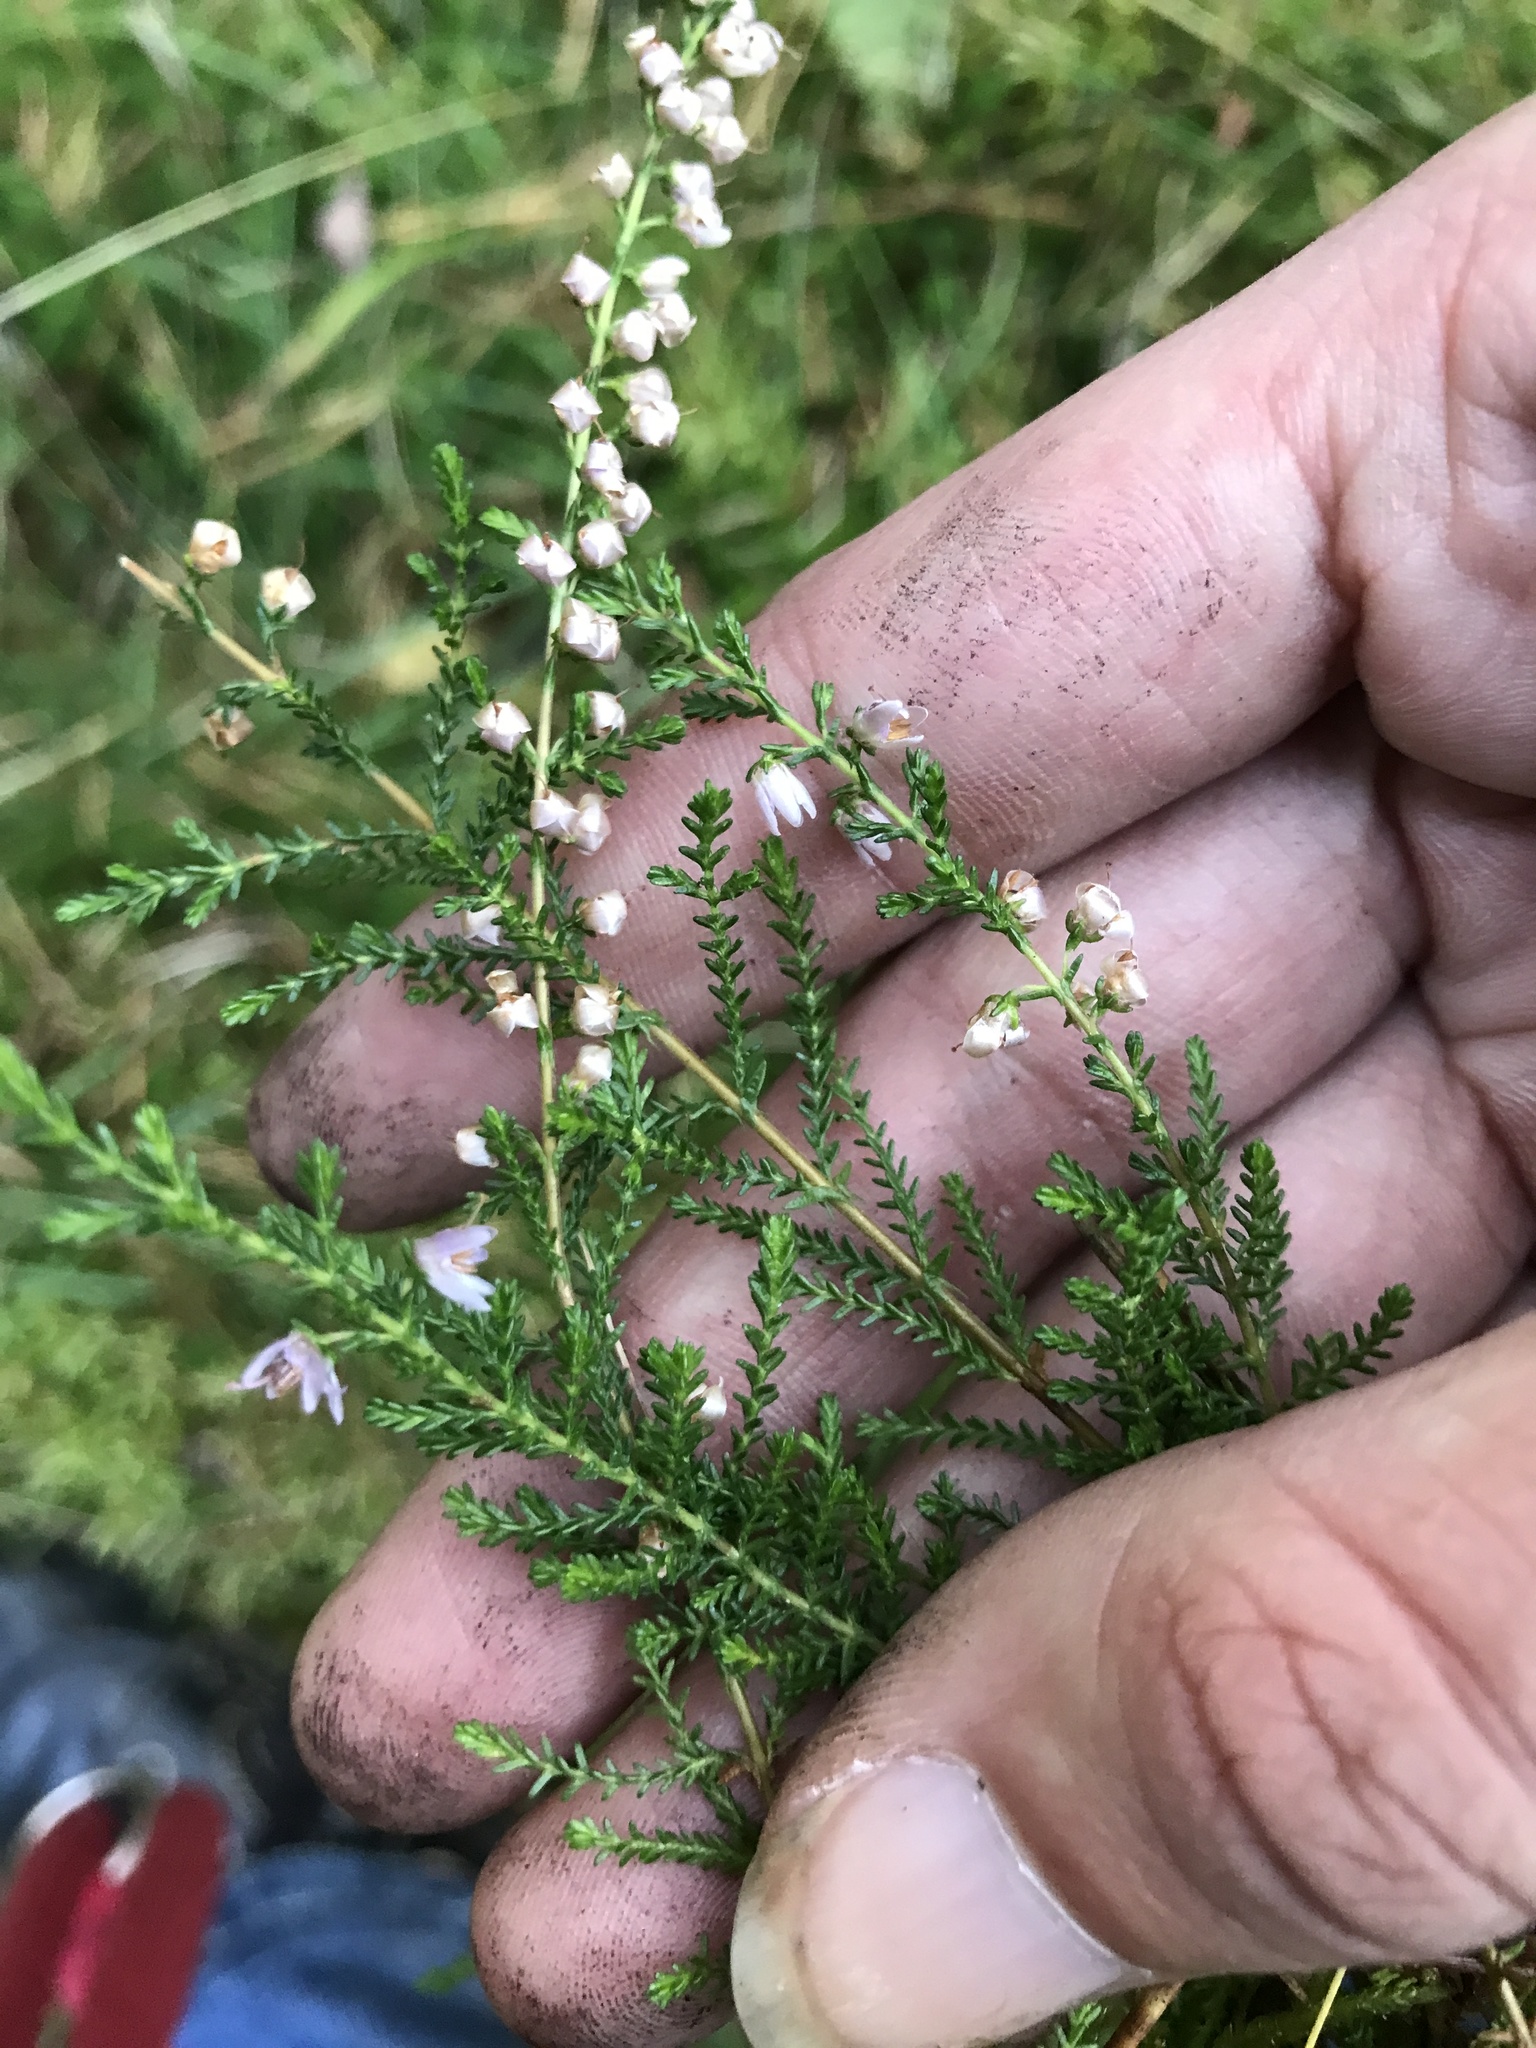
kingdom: Plantae
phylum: Tracheophyta
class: Magnoliopsida
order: Ericales
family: Ericaceae
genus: Calluna
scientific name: Calluna vulgaris
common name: Heather
